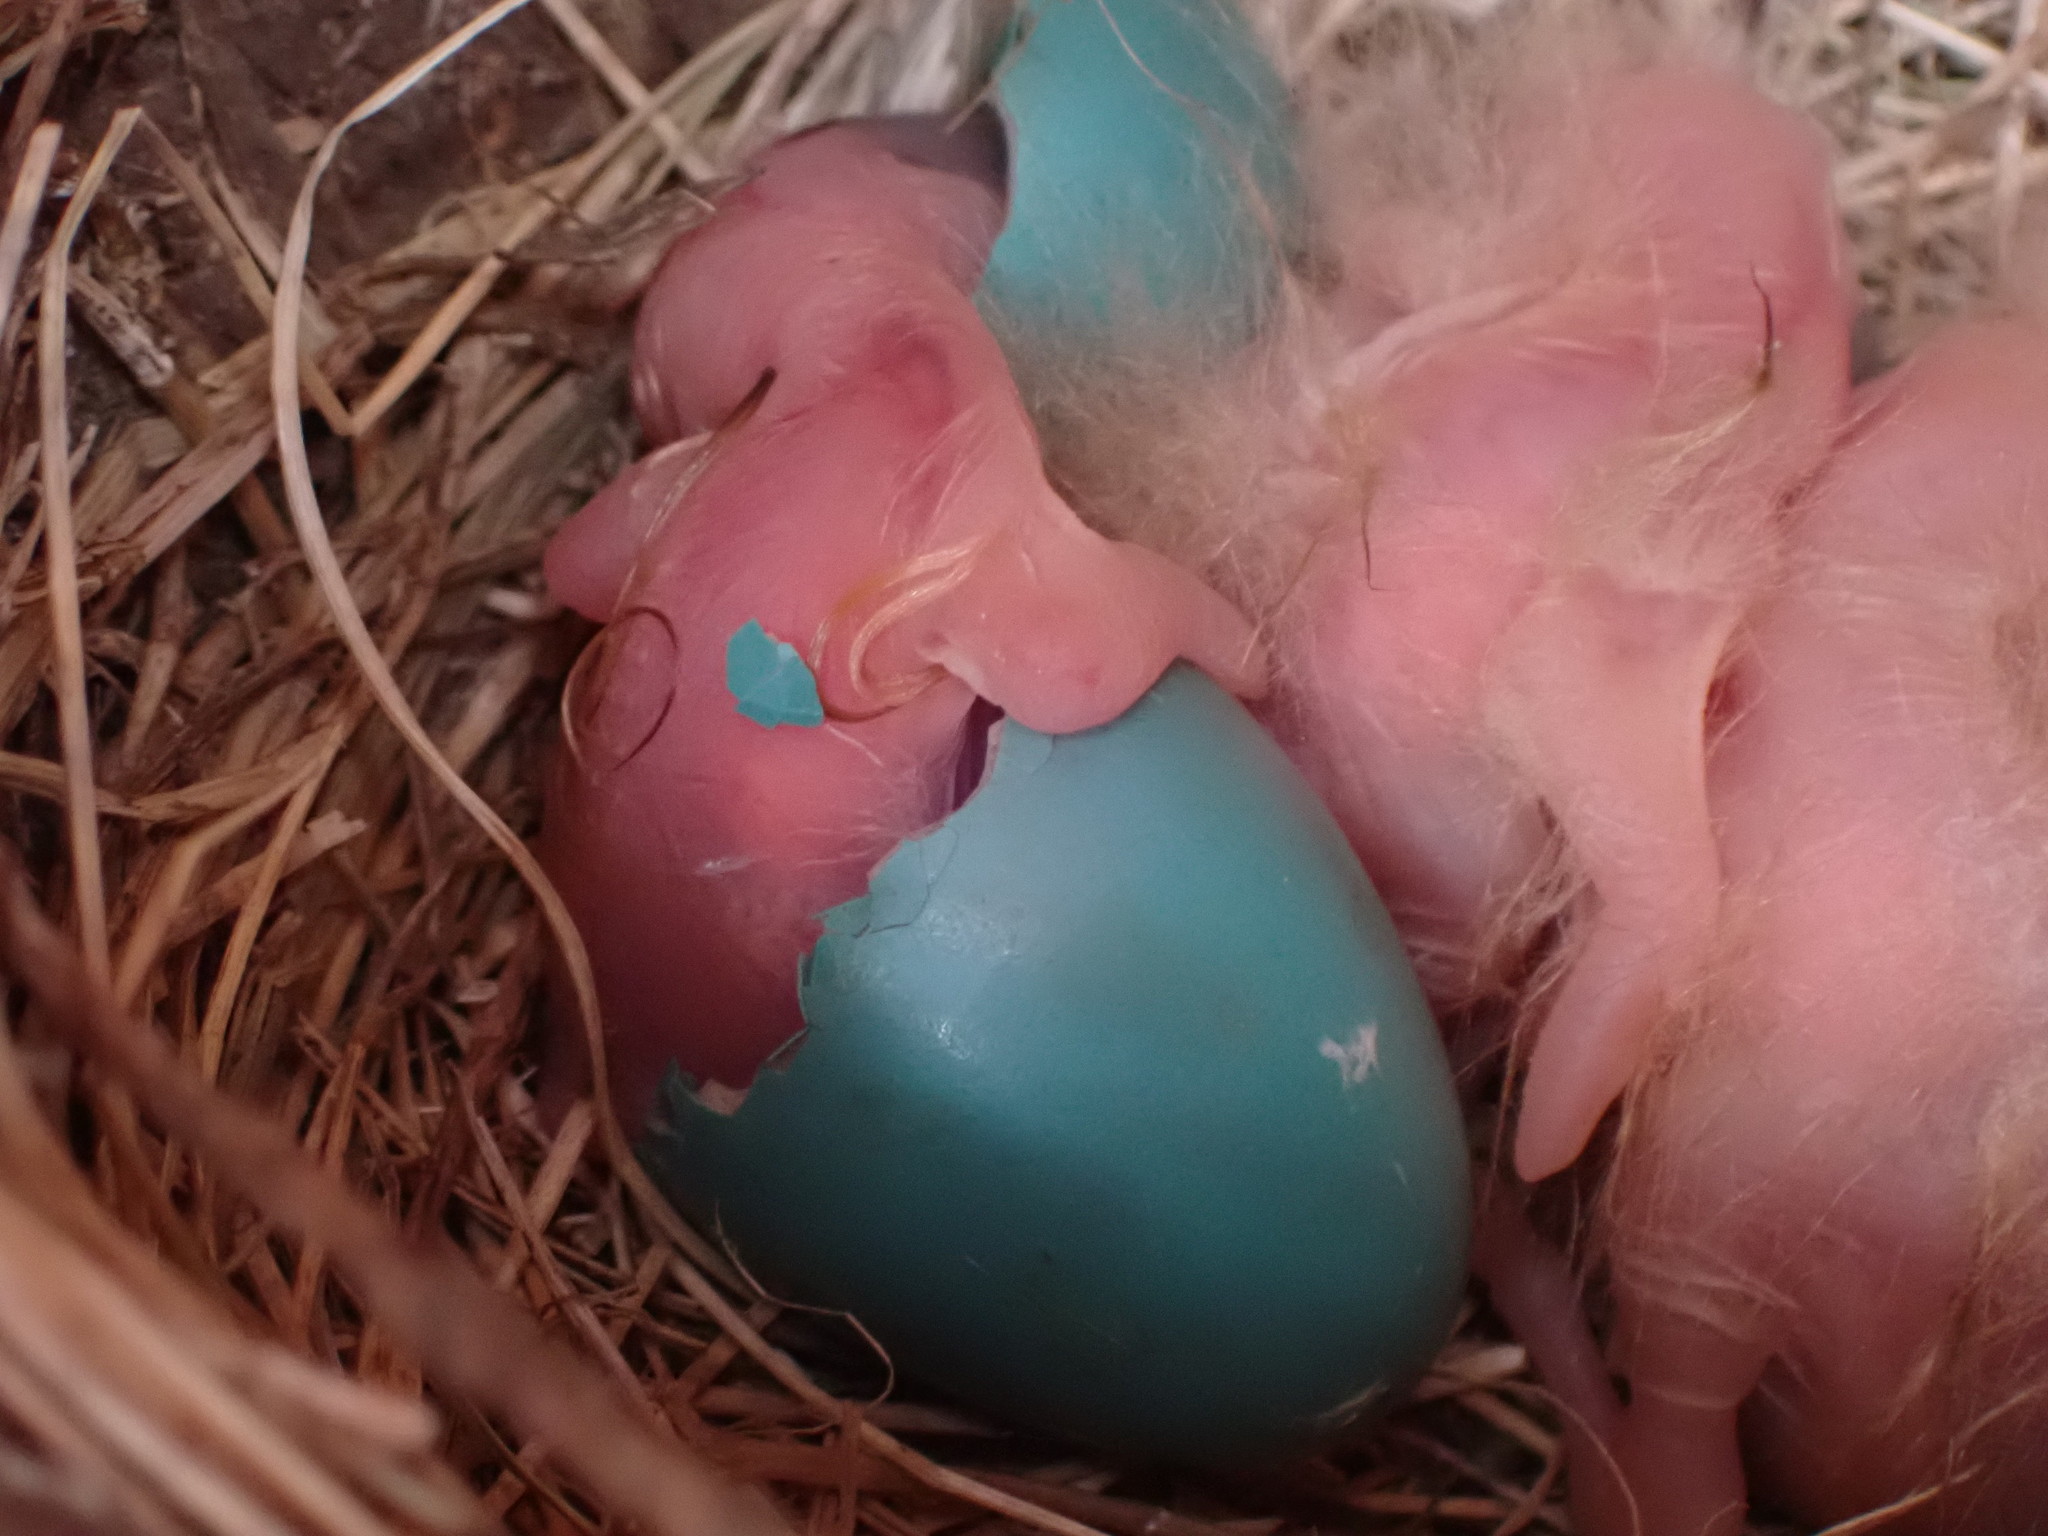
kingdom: Animalia
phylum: Chordata
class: Aves
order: Passeriformes
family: Turdidae
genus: Turdus
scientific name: Turdus migratorius
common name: American robin
